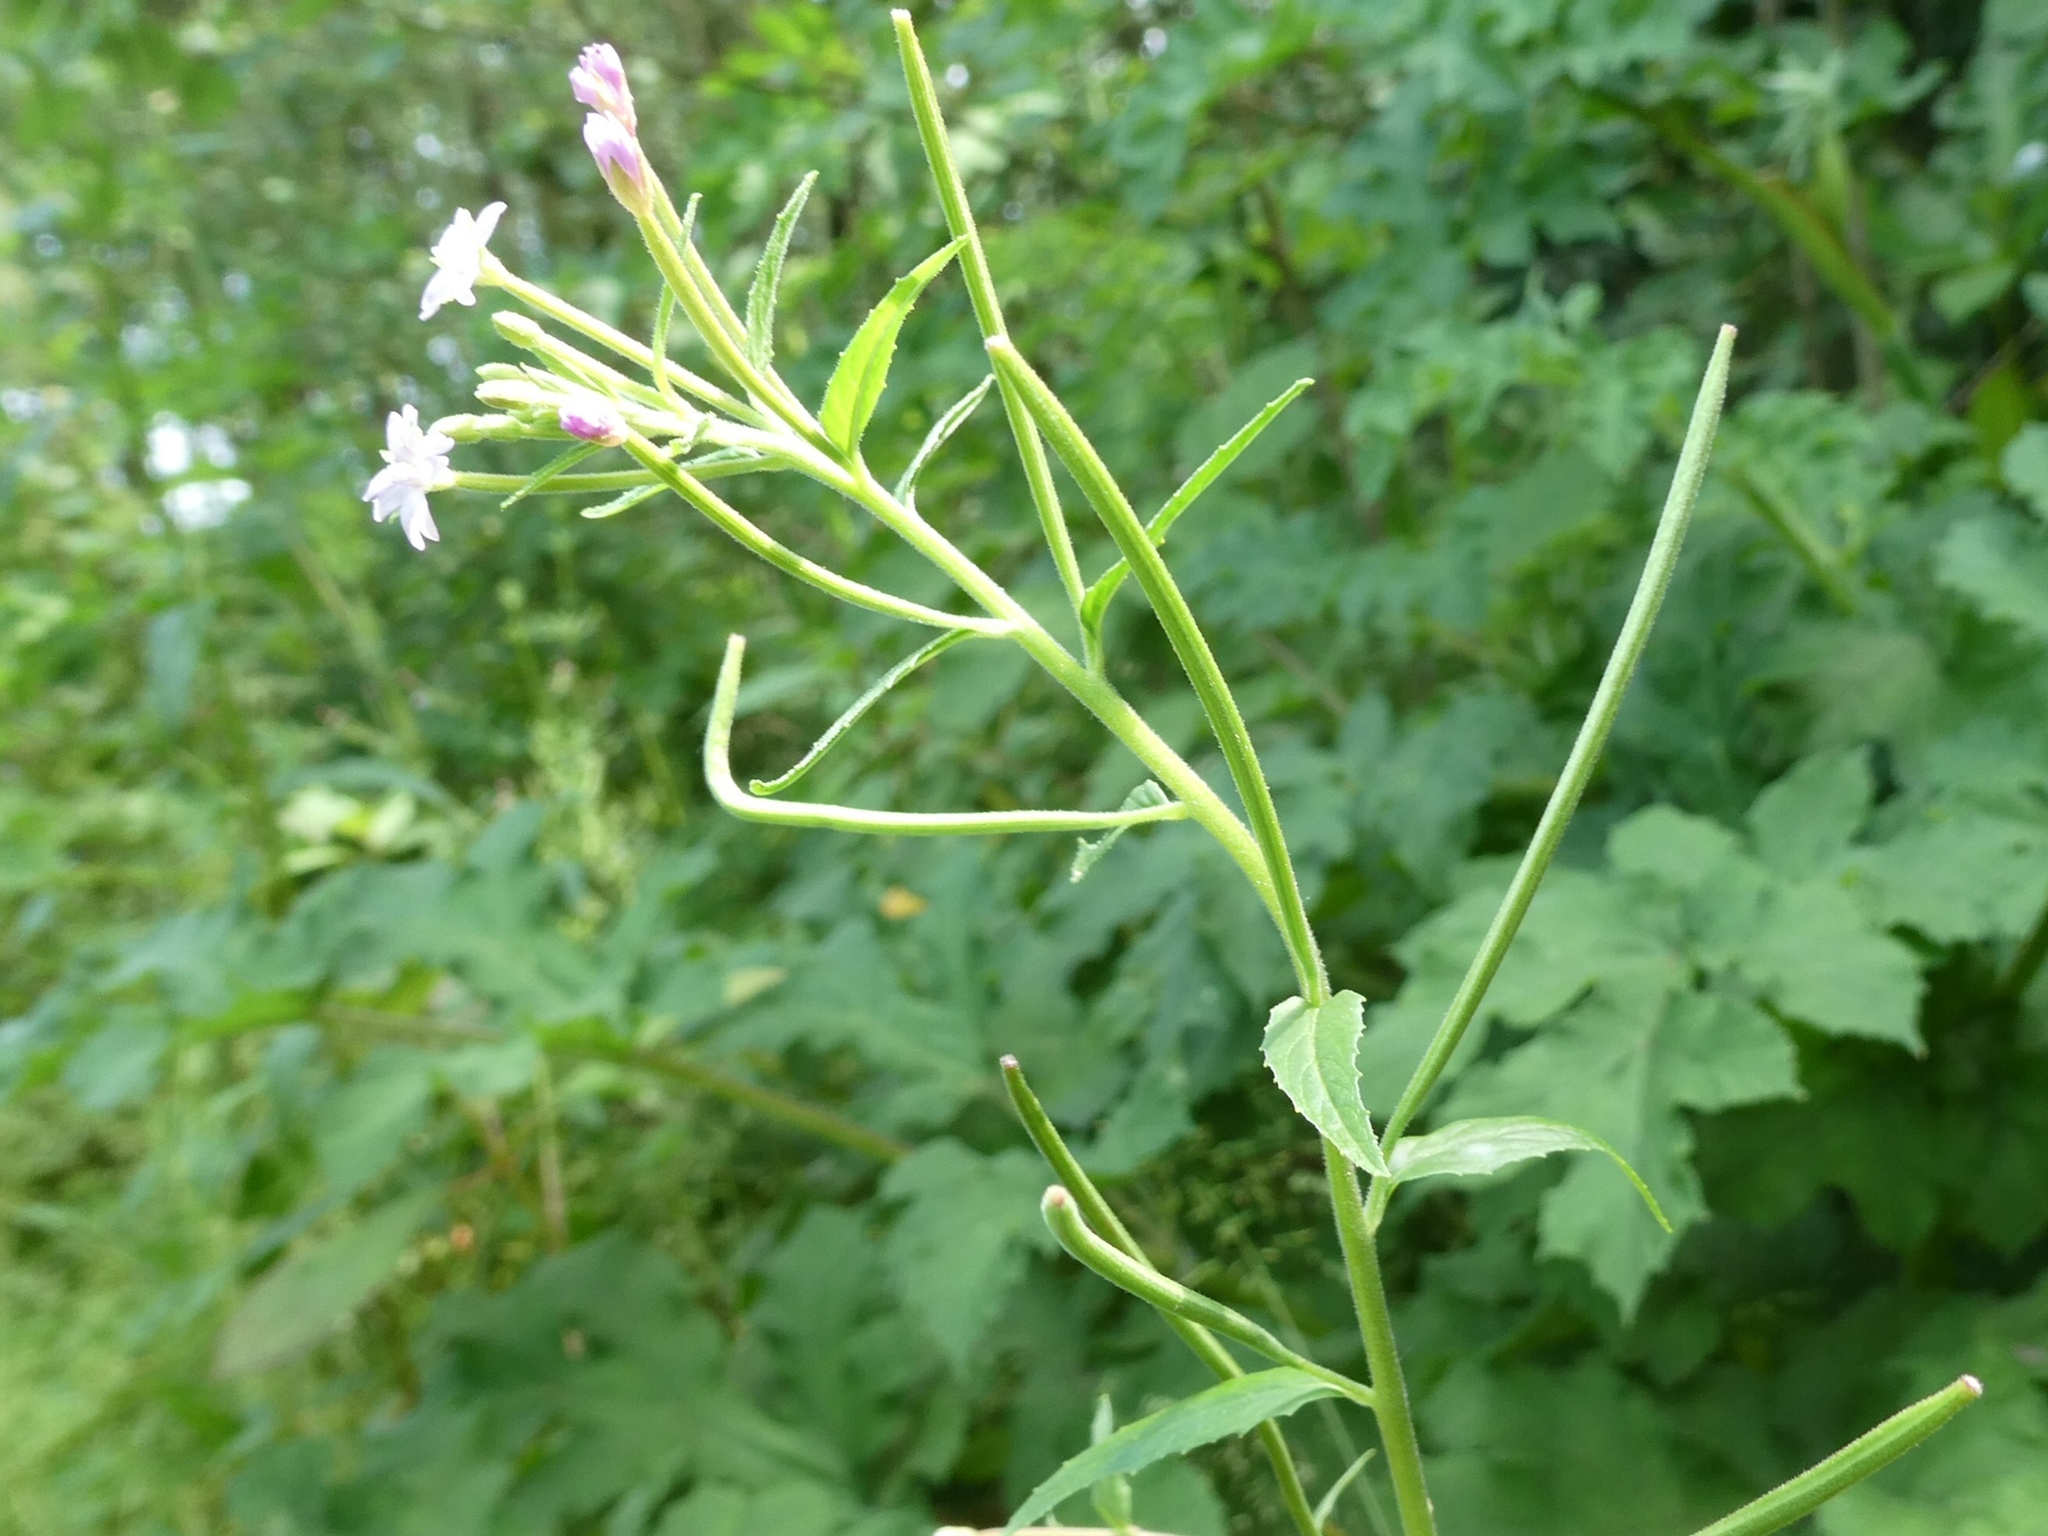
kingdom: Plantae
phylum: Tracheophyta
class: Magnoliopsida
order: Myrtales
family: Onagraceae
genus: Epilobium
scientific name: Epilobium ciliatum
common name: American willowherb
